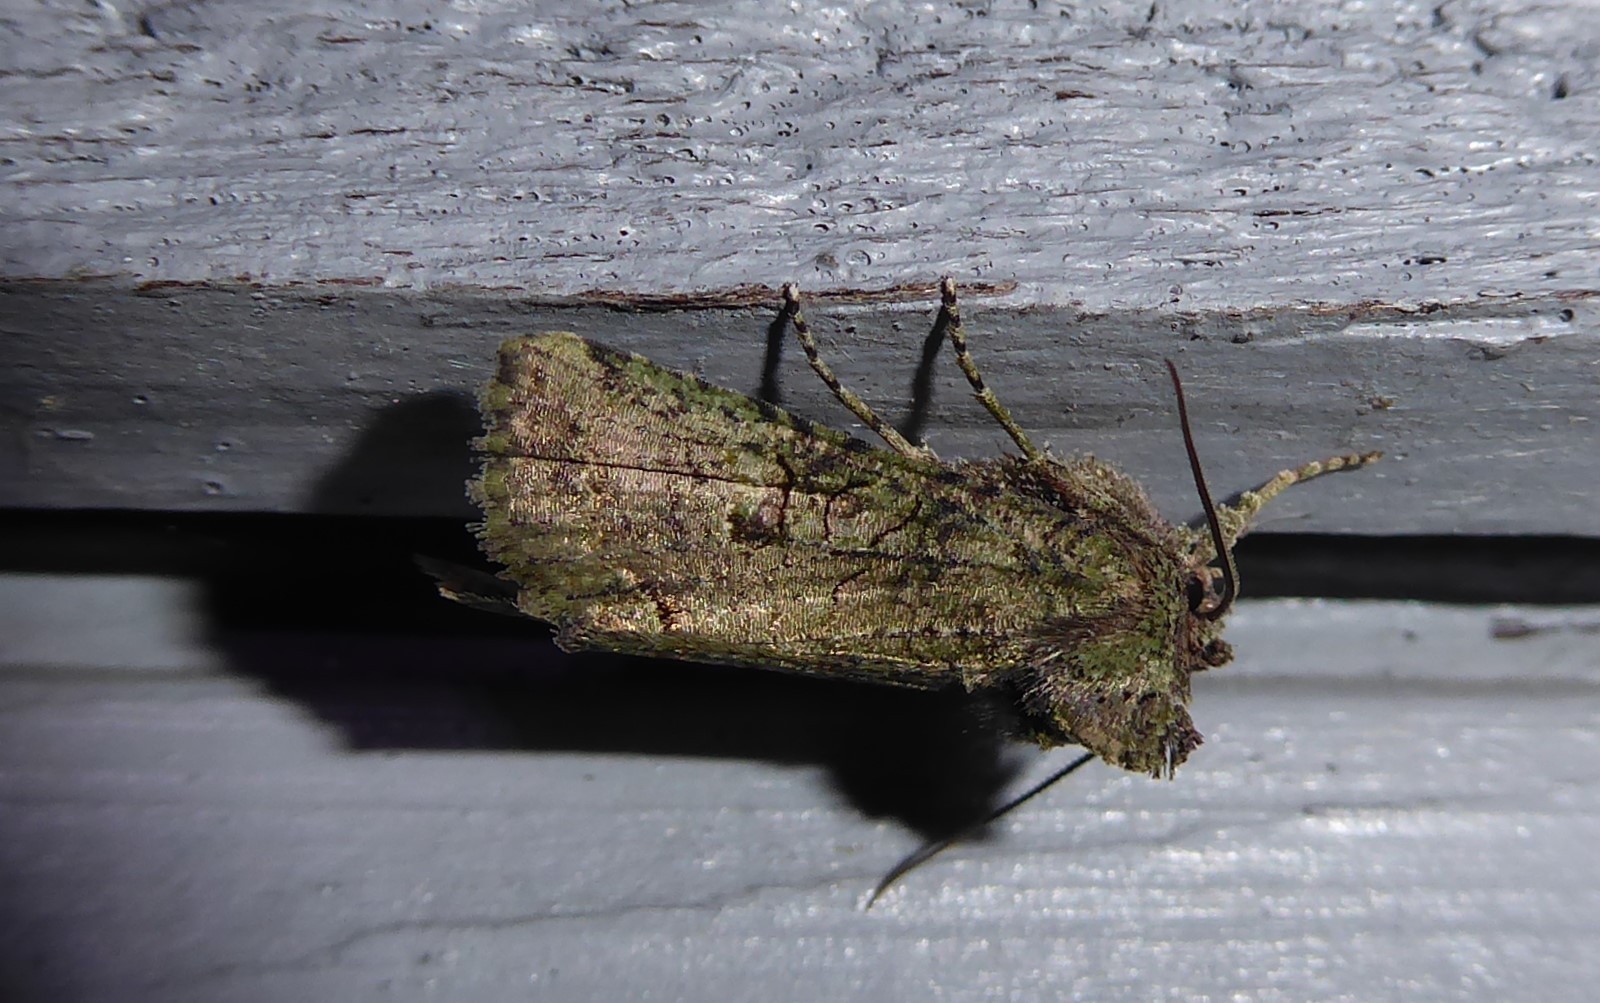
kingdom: Animalia
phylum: Arthropoda
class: Insecta
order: Lepidoptera
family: Noctuidae
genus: Meterana
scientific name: Meterana levis
